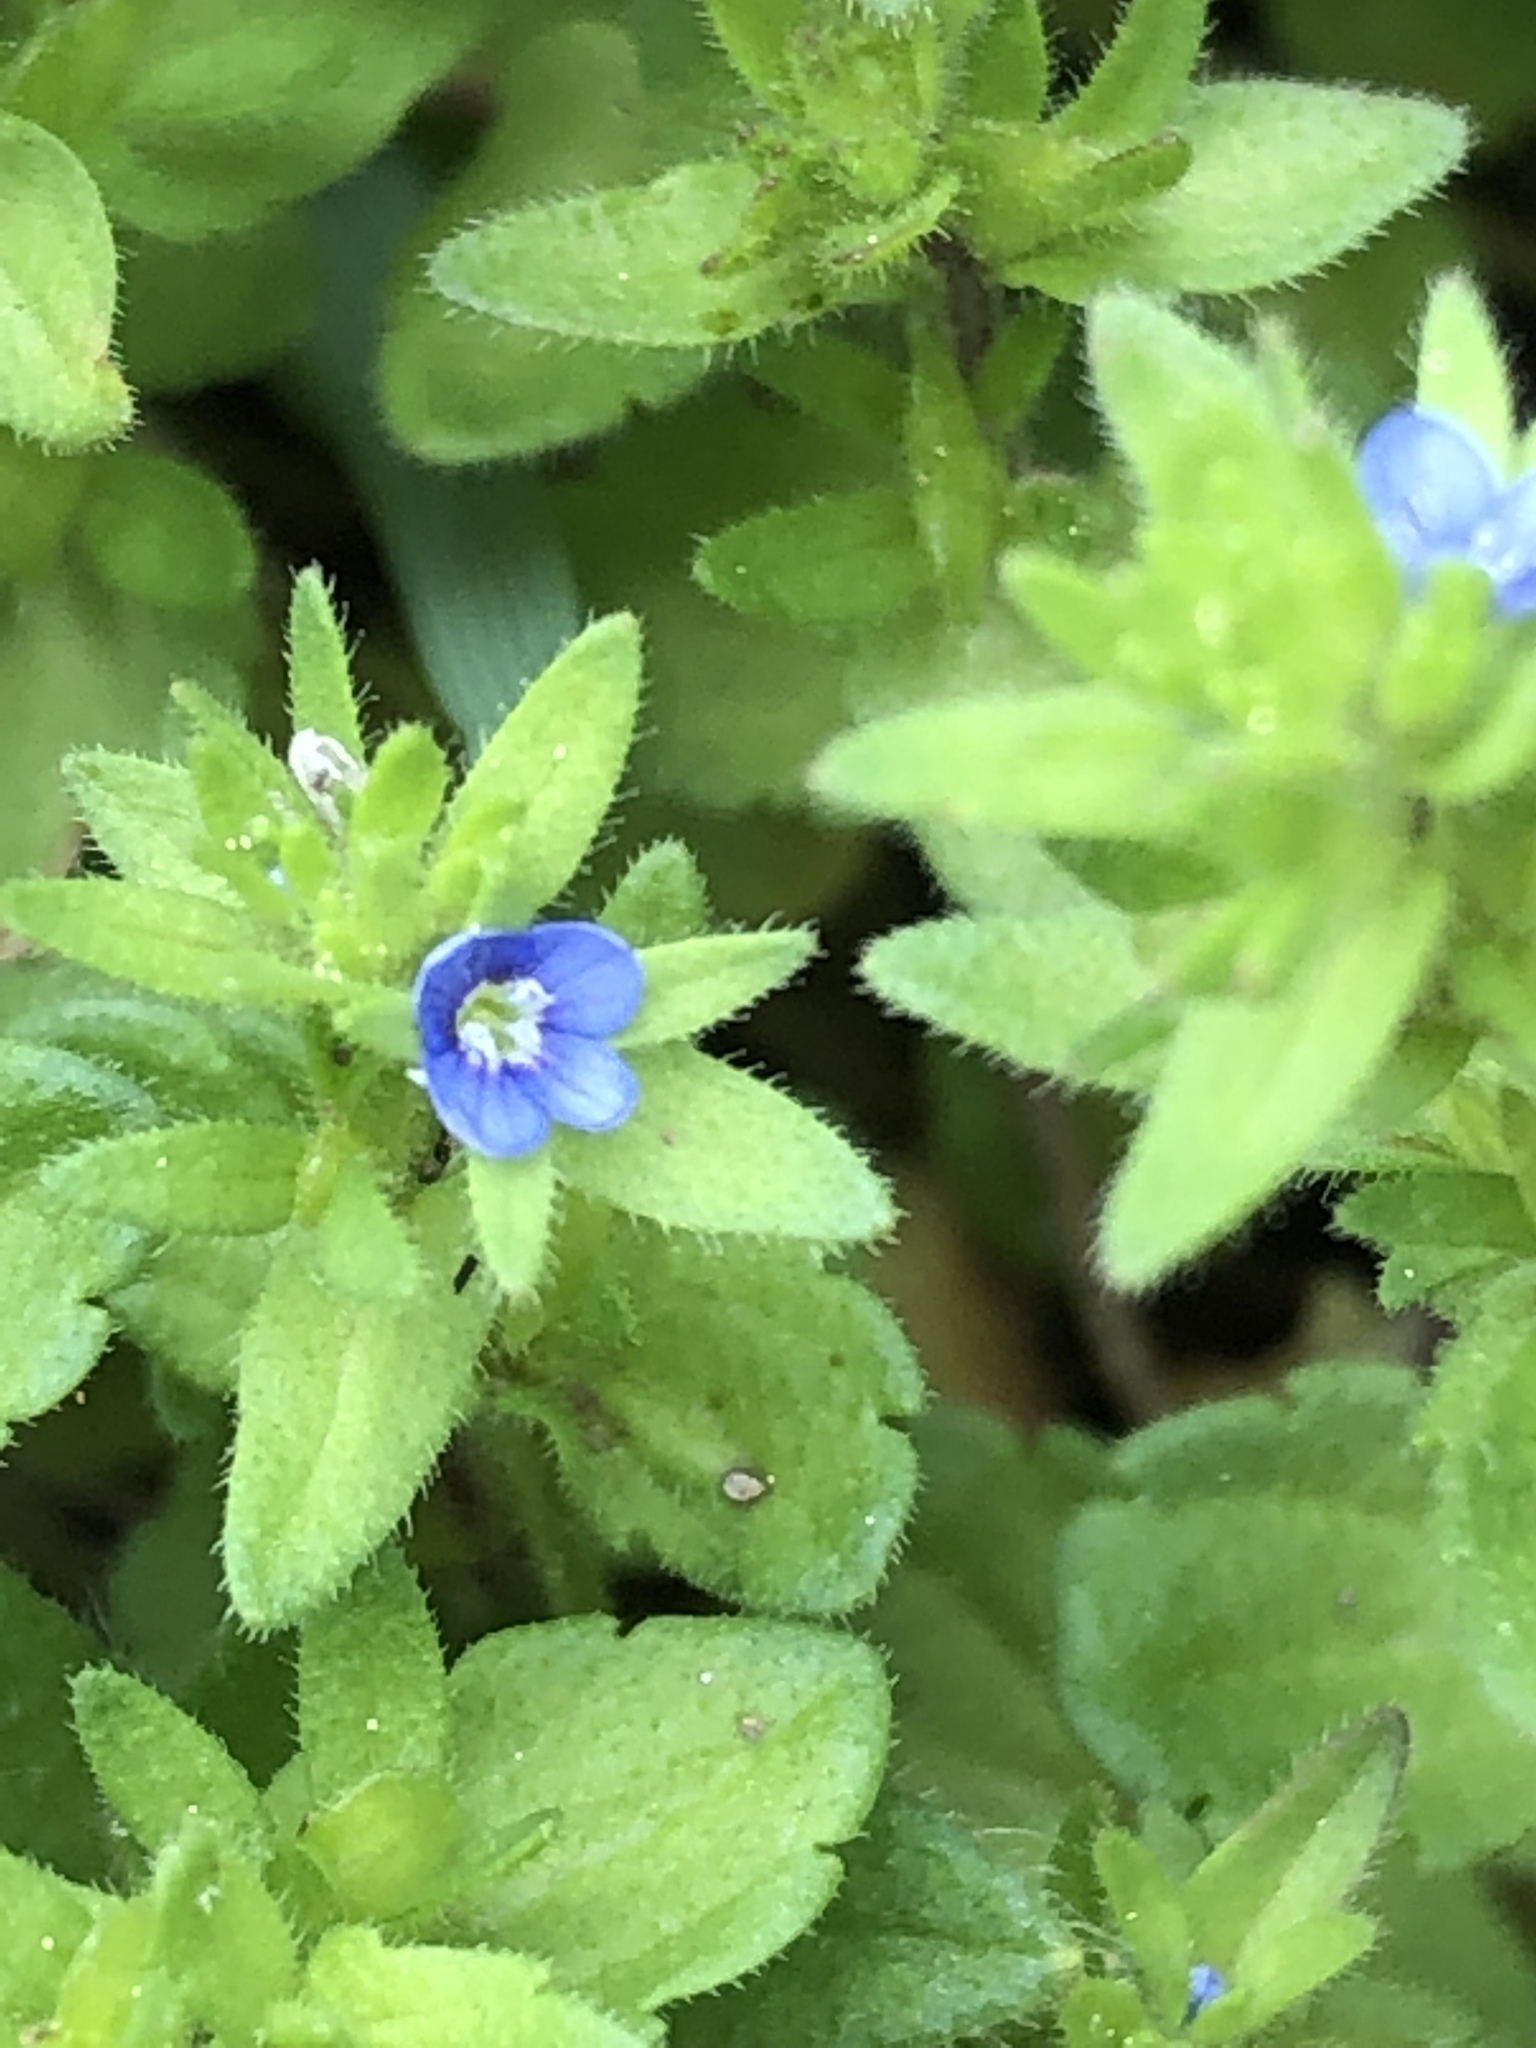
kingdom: Plantae
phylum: Tracheophyta
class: Magnoliopsida
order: Lamiales
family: Plantaginaceae
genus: Veronica
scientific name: Veronica arvensis
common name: Corn speedwell
